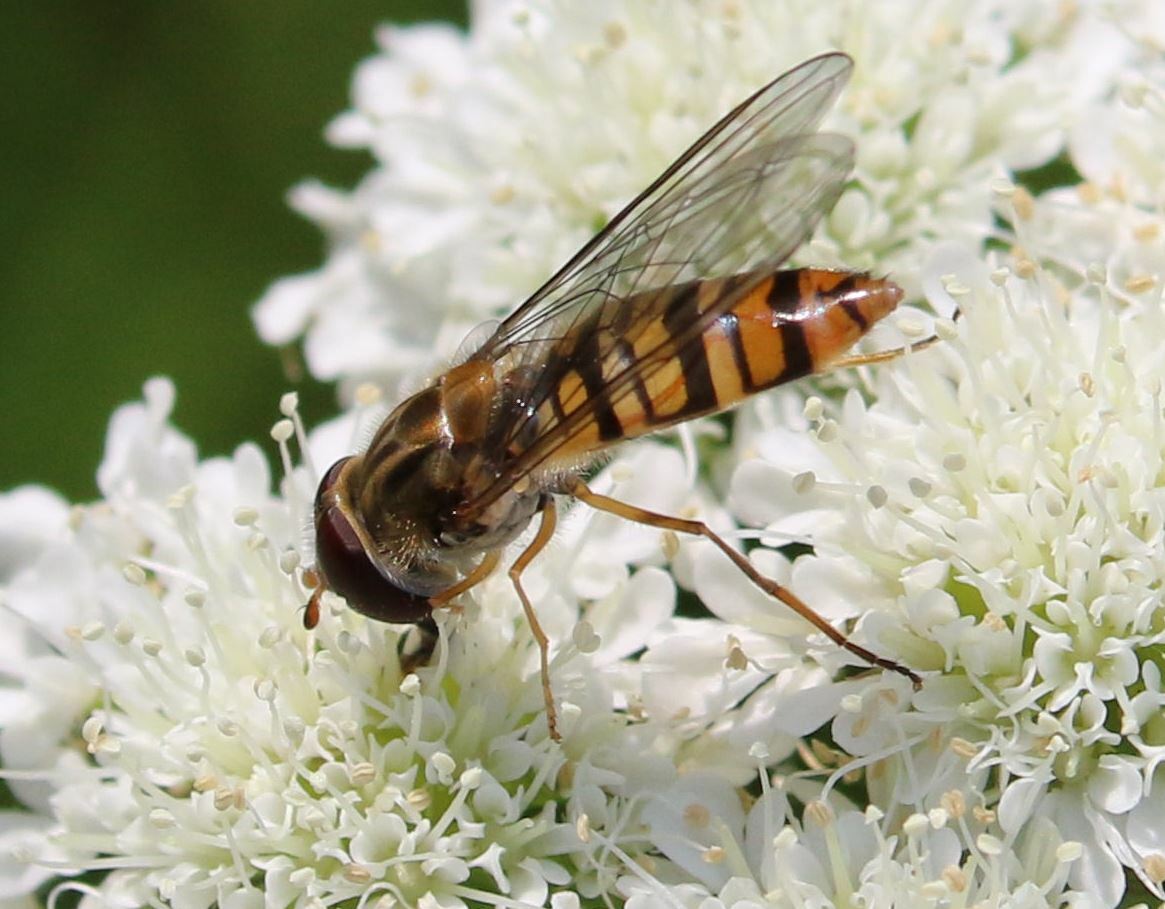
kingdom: Animalia
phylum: Arthropoda
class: Insecta
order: Diptera
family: Syrphidae
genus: Episyrphus
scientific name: Episyrphus balteatus
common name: Marmalade hoverfly
